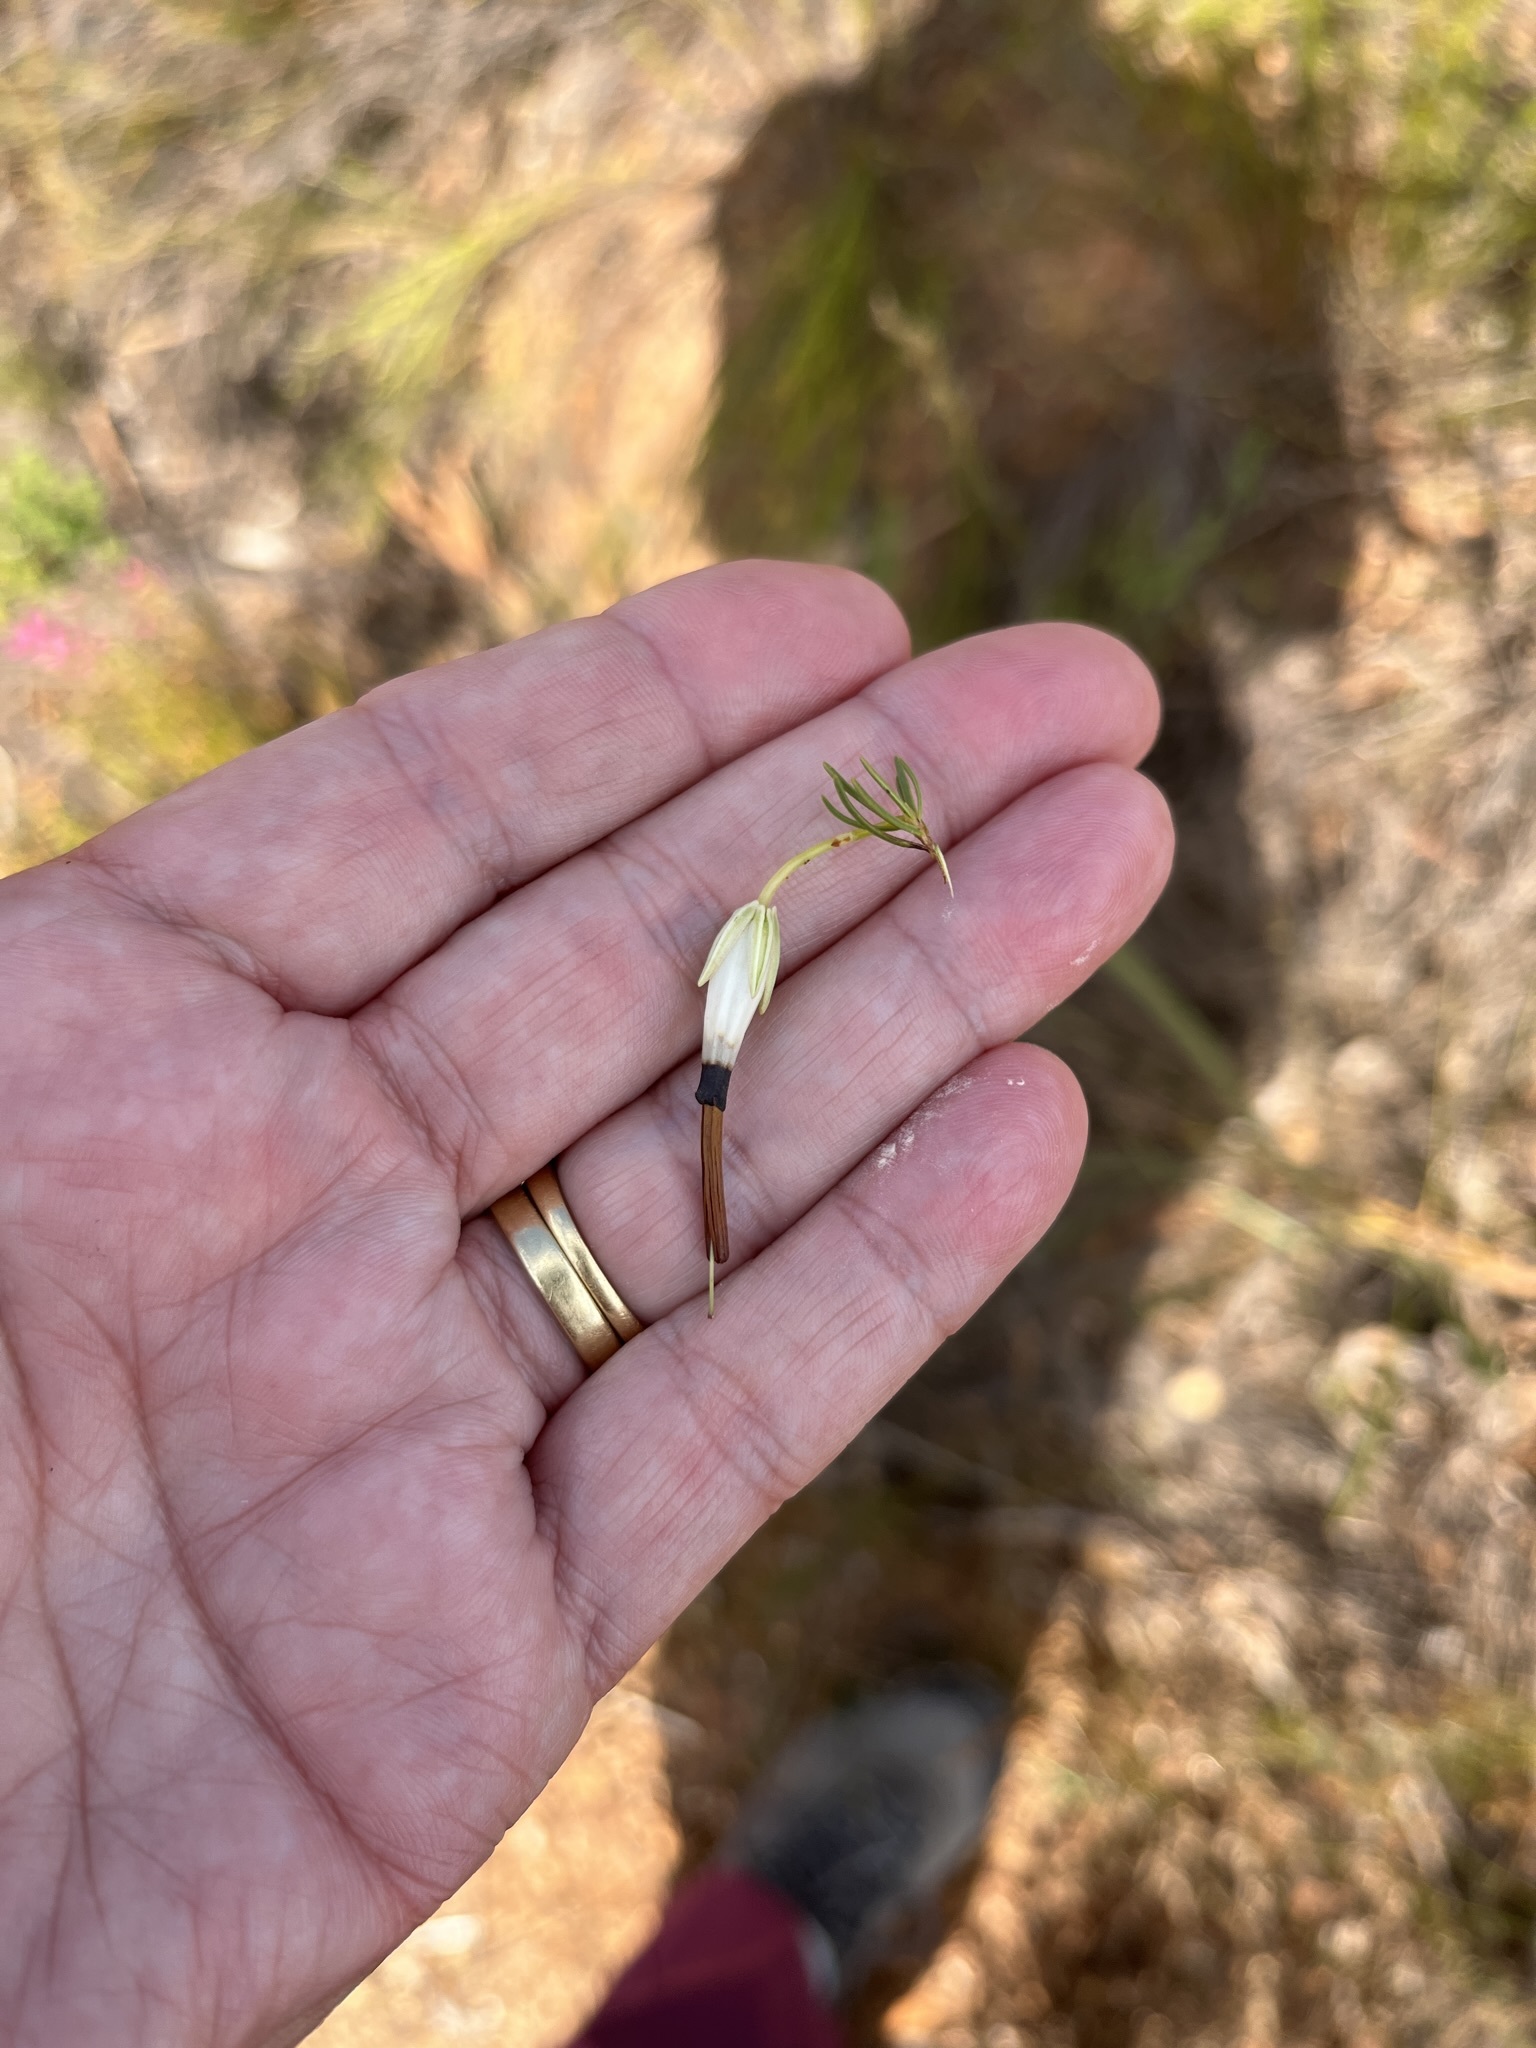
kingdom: Plantae
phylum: Tracheophyta
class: Magnoliopsida
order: Ericales
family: Ericaceae
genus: Erica
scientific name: Erica plukenetii
